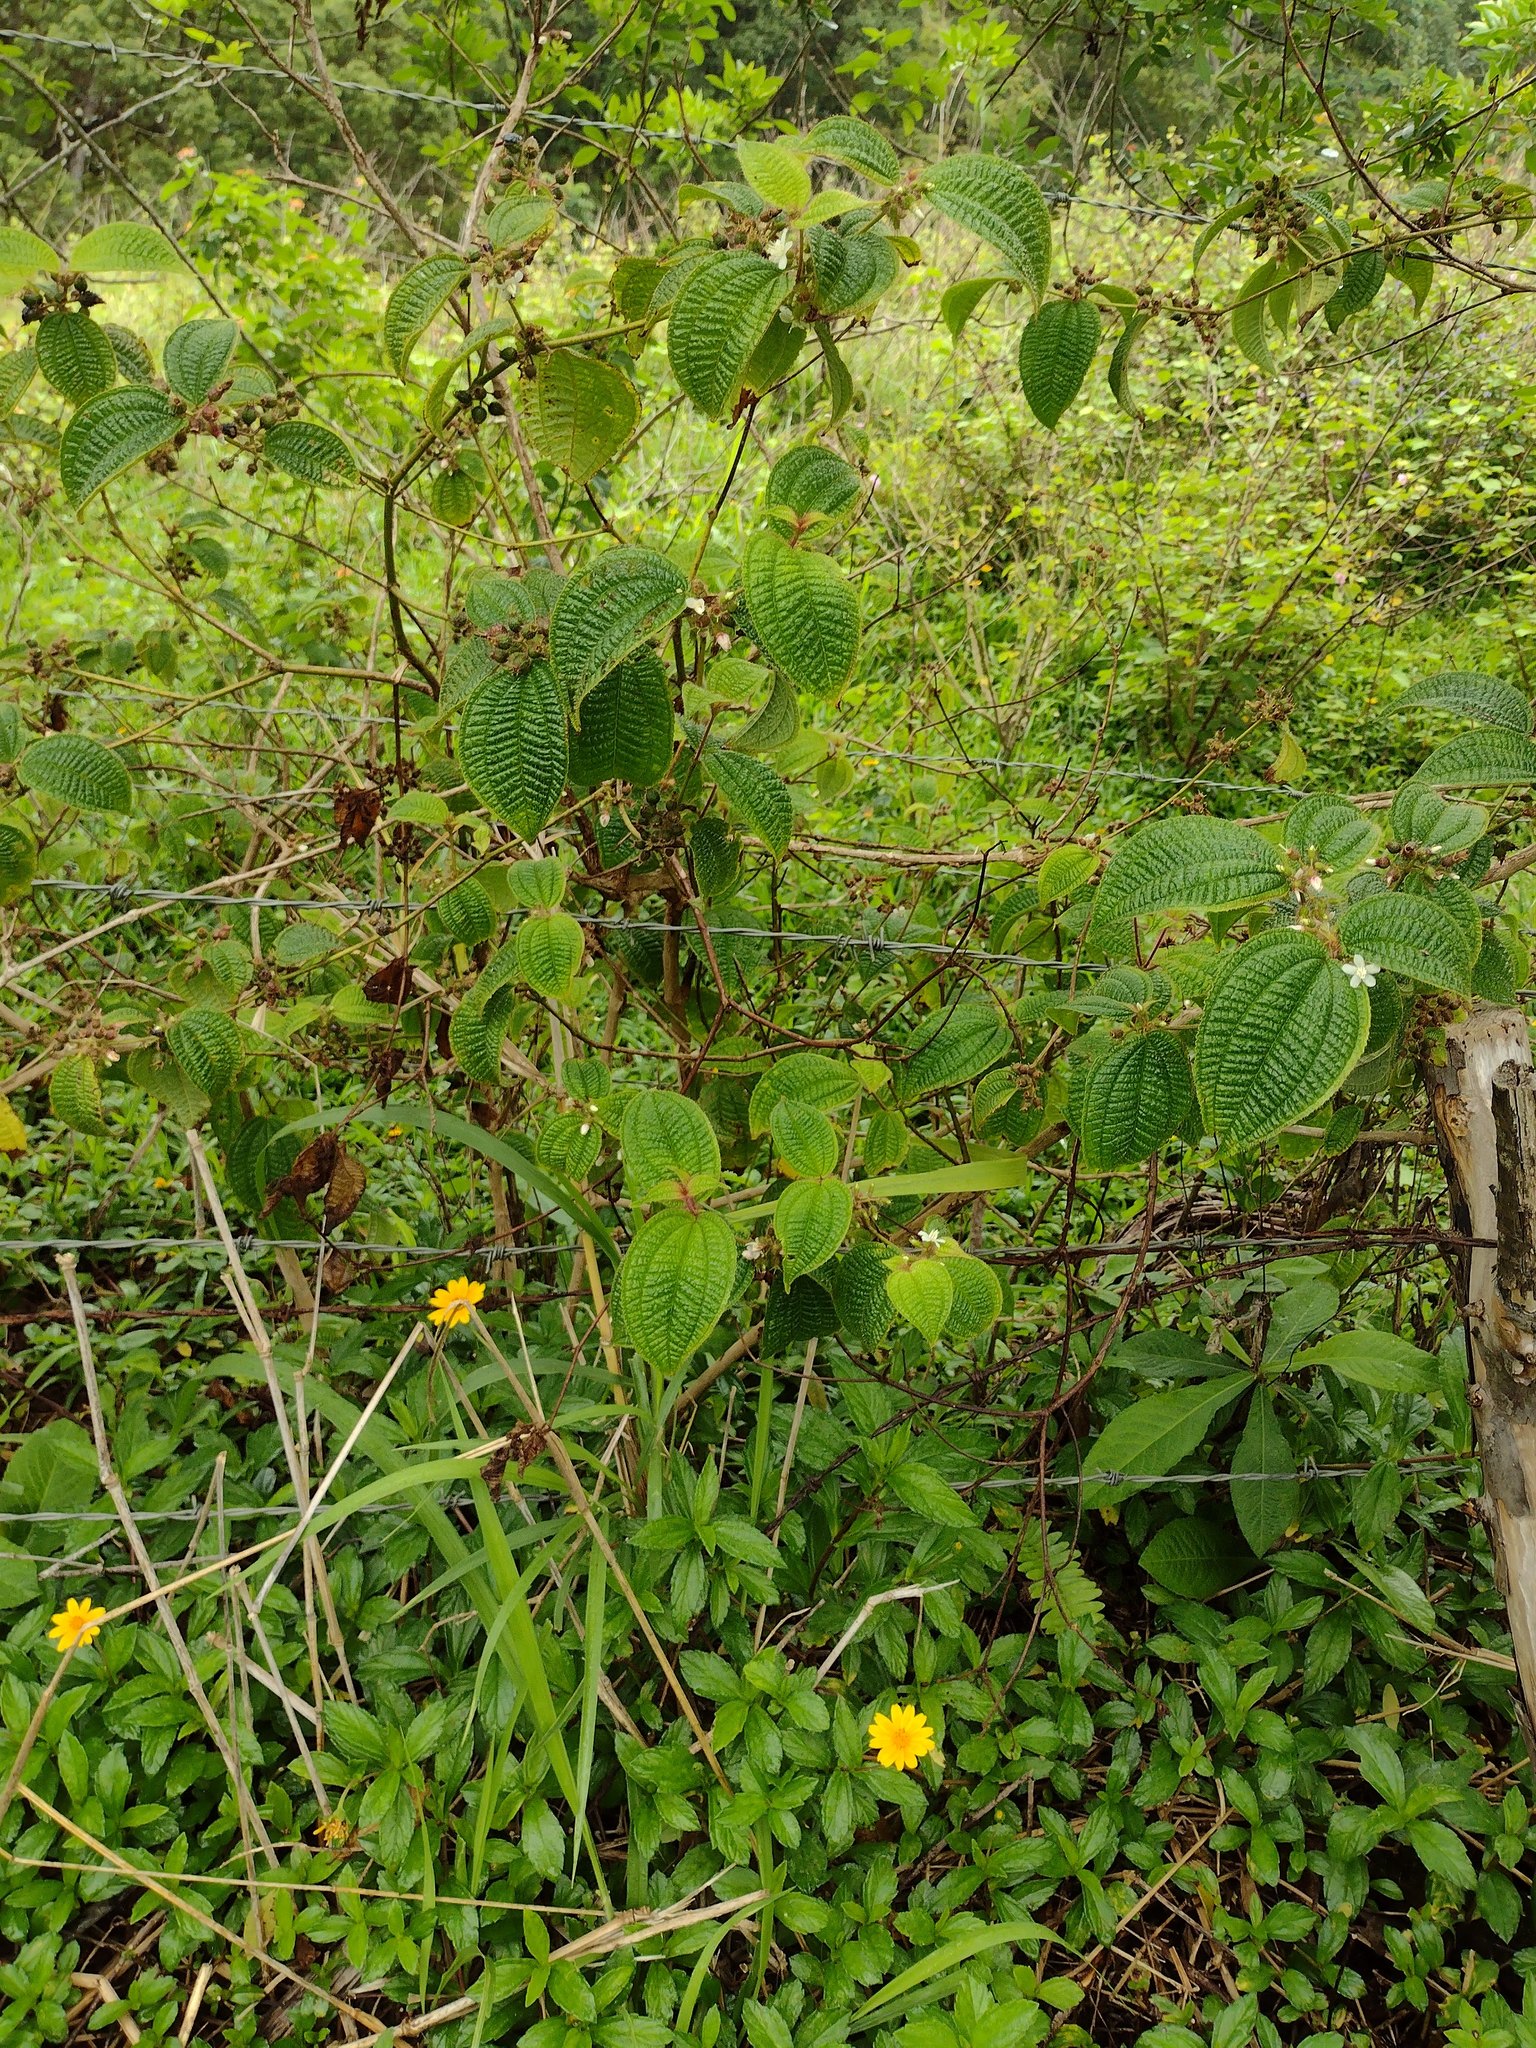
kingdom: Plantae
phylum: Tracheophyta
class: Magnoliopsida
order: Myrtales
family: Melastomataceae
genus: Miconia
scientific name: Miconia crenata
